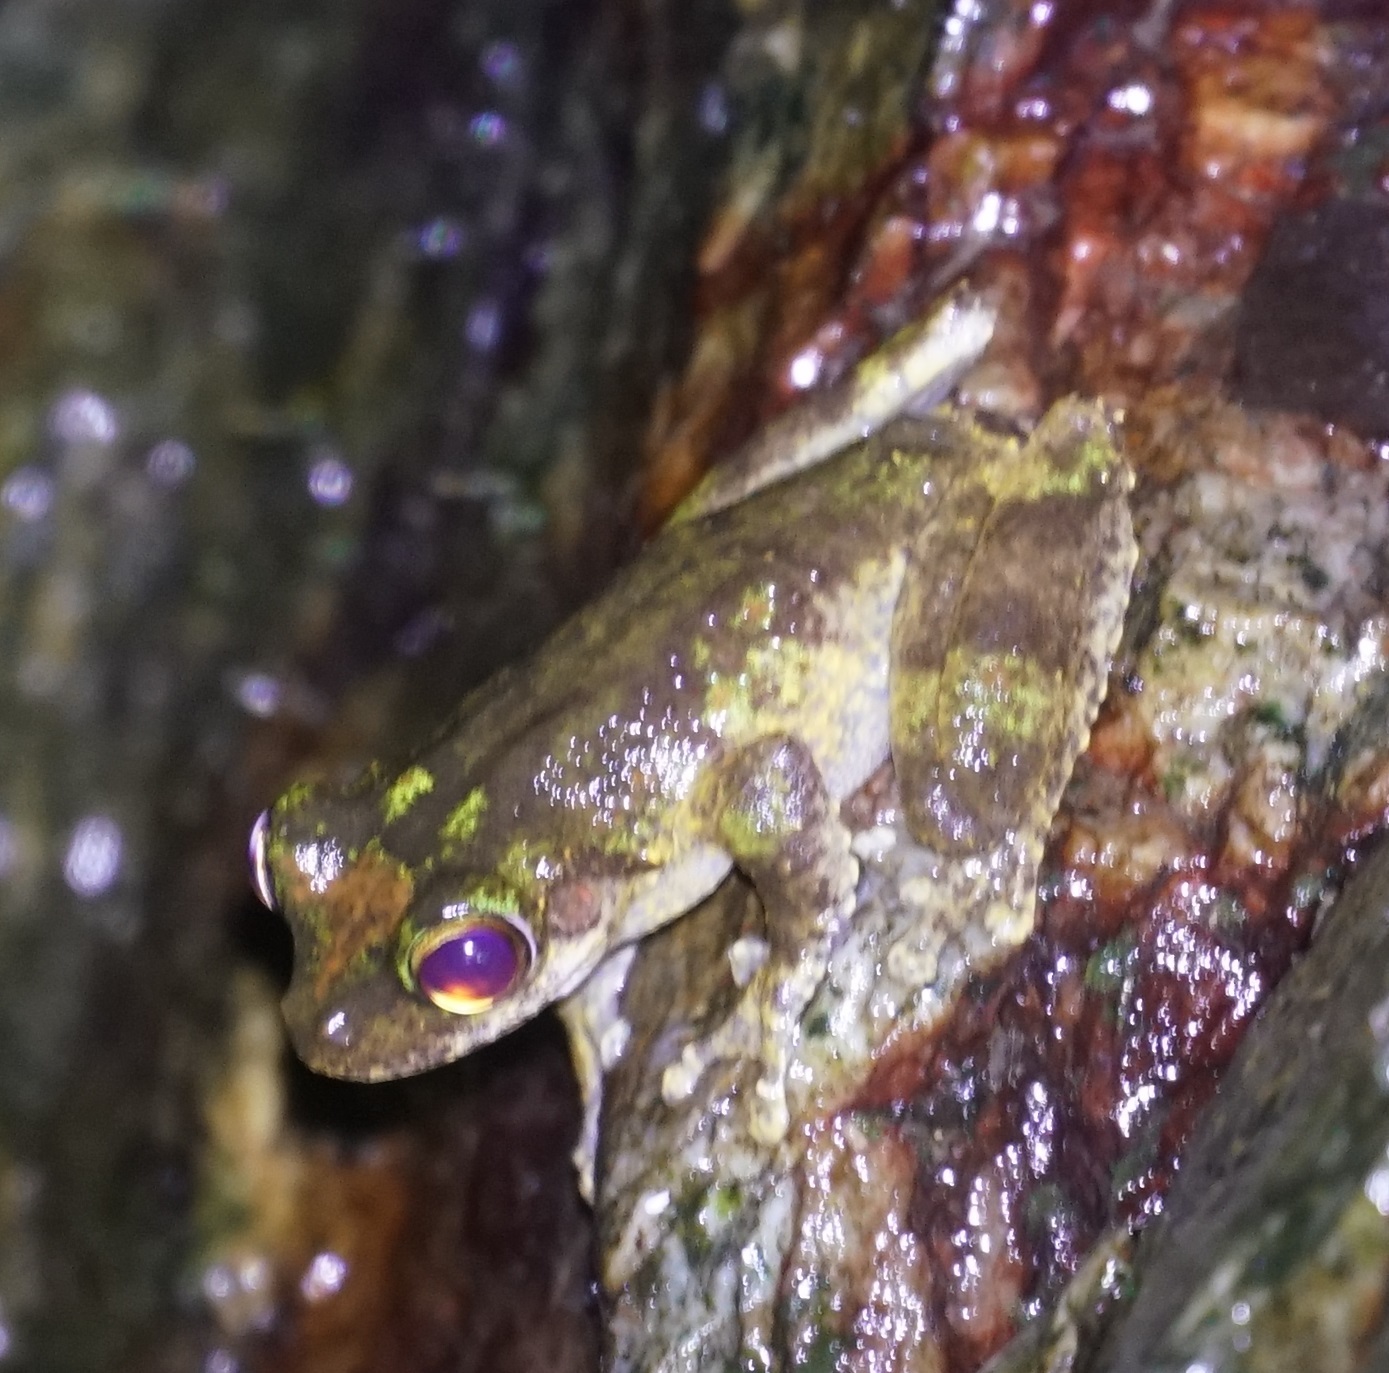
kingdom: Animalia
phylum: Chordata
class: Amphibia
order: Anura
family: Pelodryadidae
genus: Ranoidea
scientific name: Ranoidea serrata
